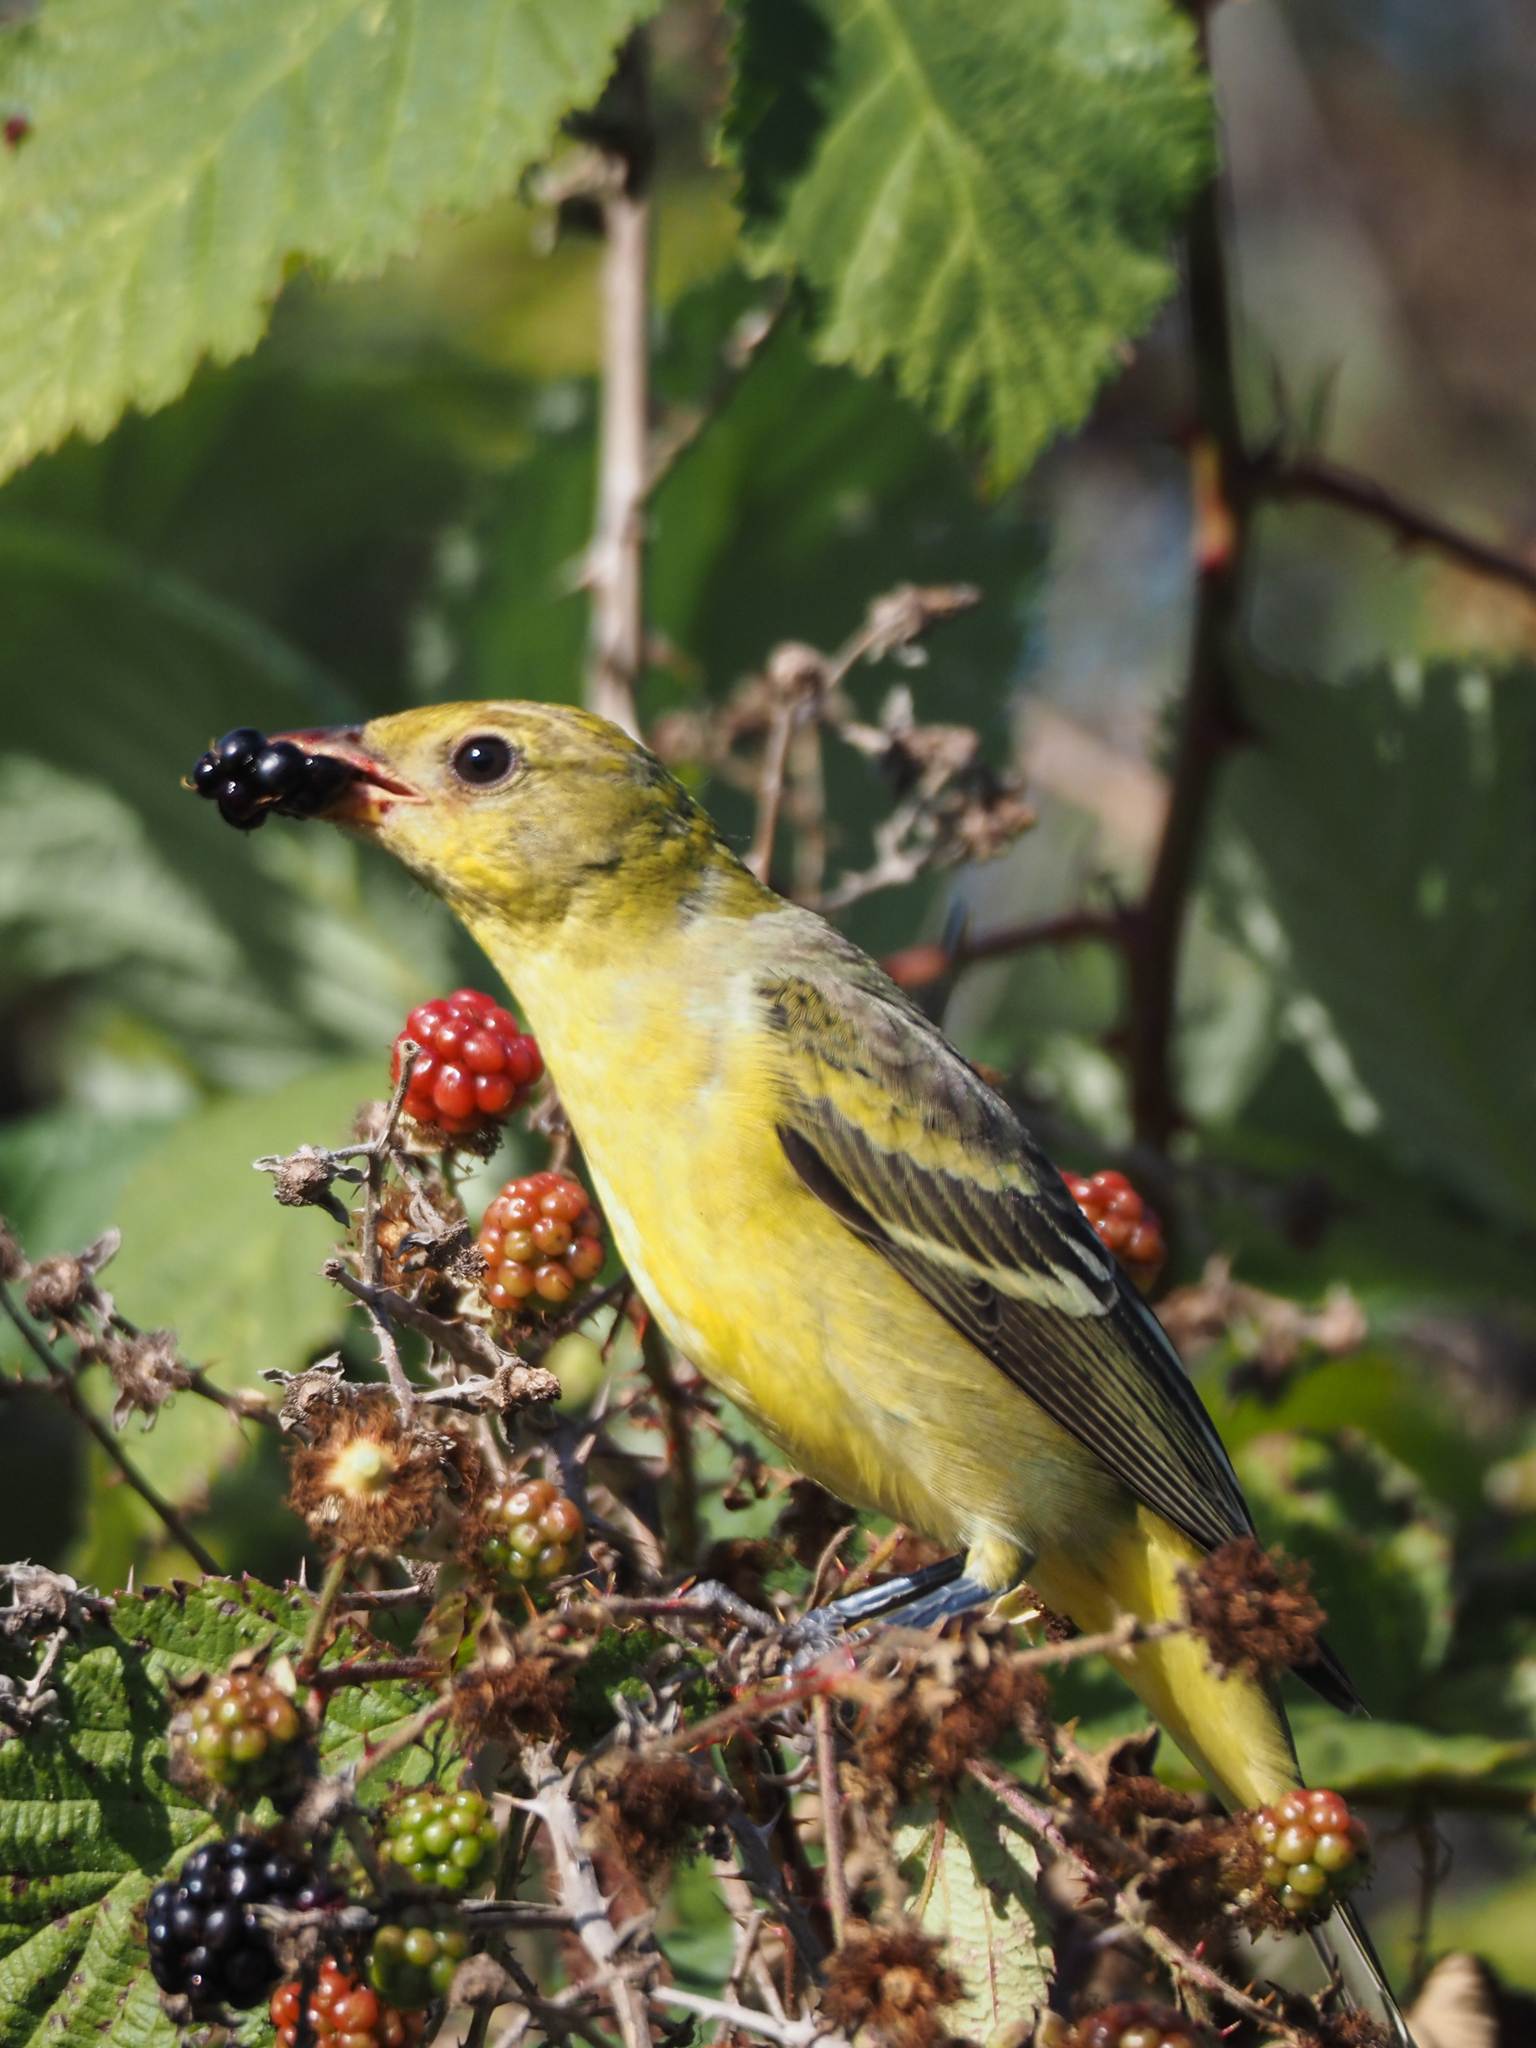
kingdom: Animalia
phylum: Chordata
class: Aves
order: Passeriformes
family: Cardinalidae
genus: Piranga
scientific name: Piranga ludoviciana
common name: Western tanager
